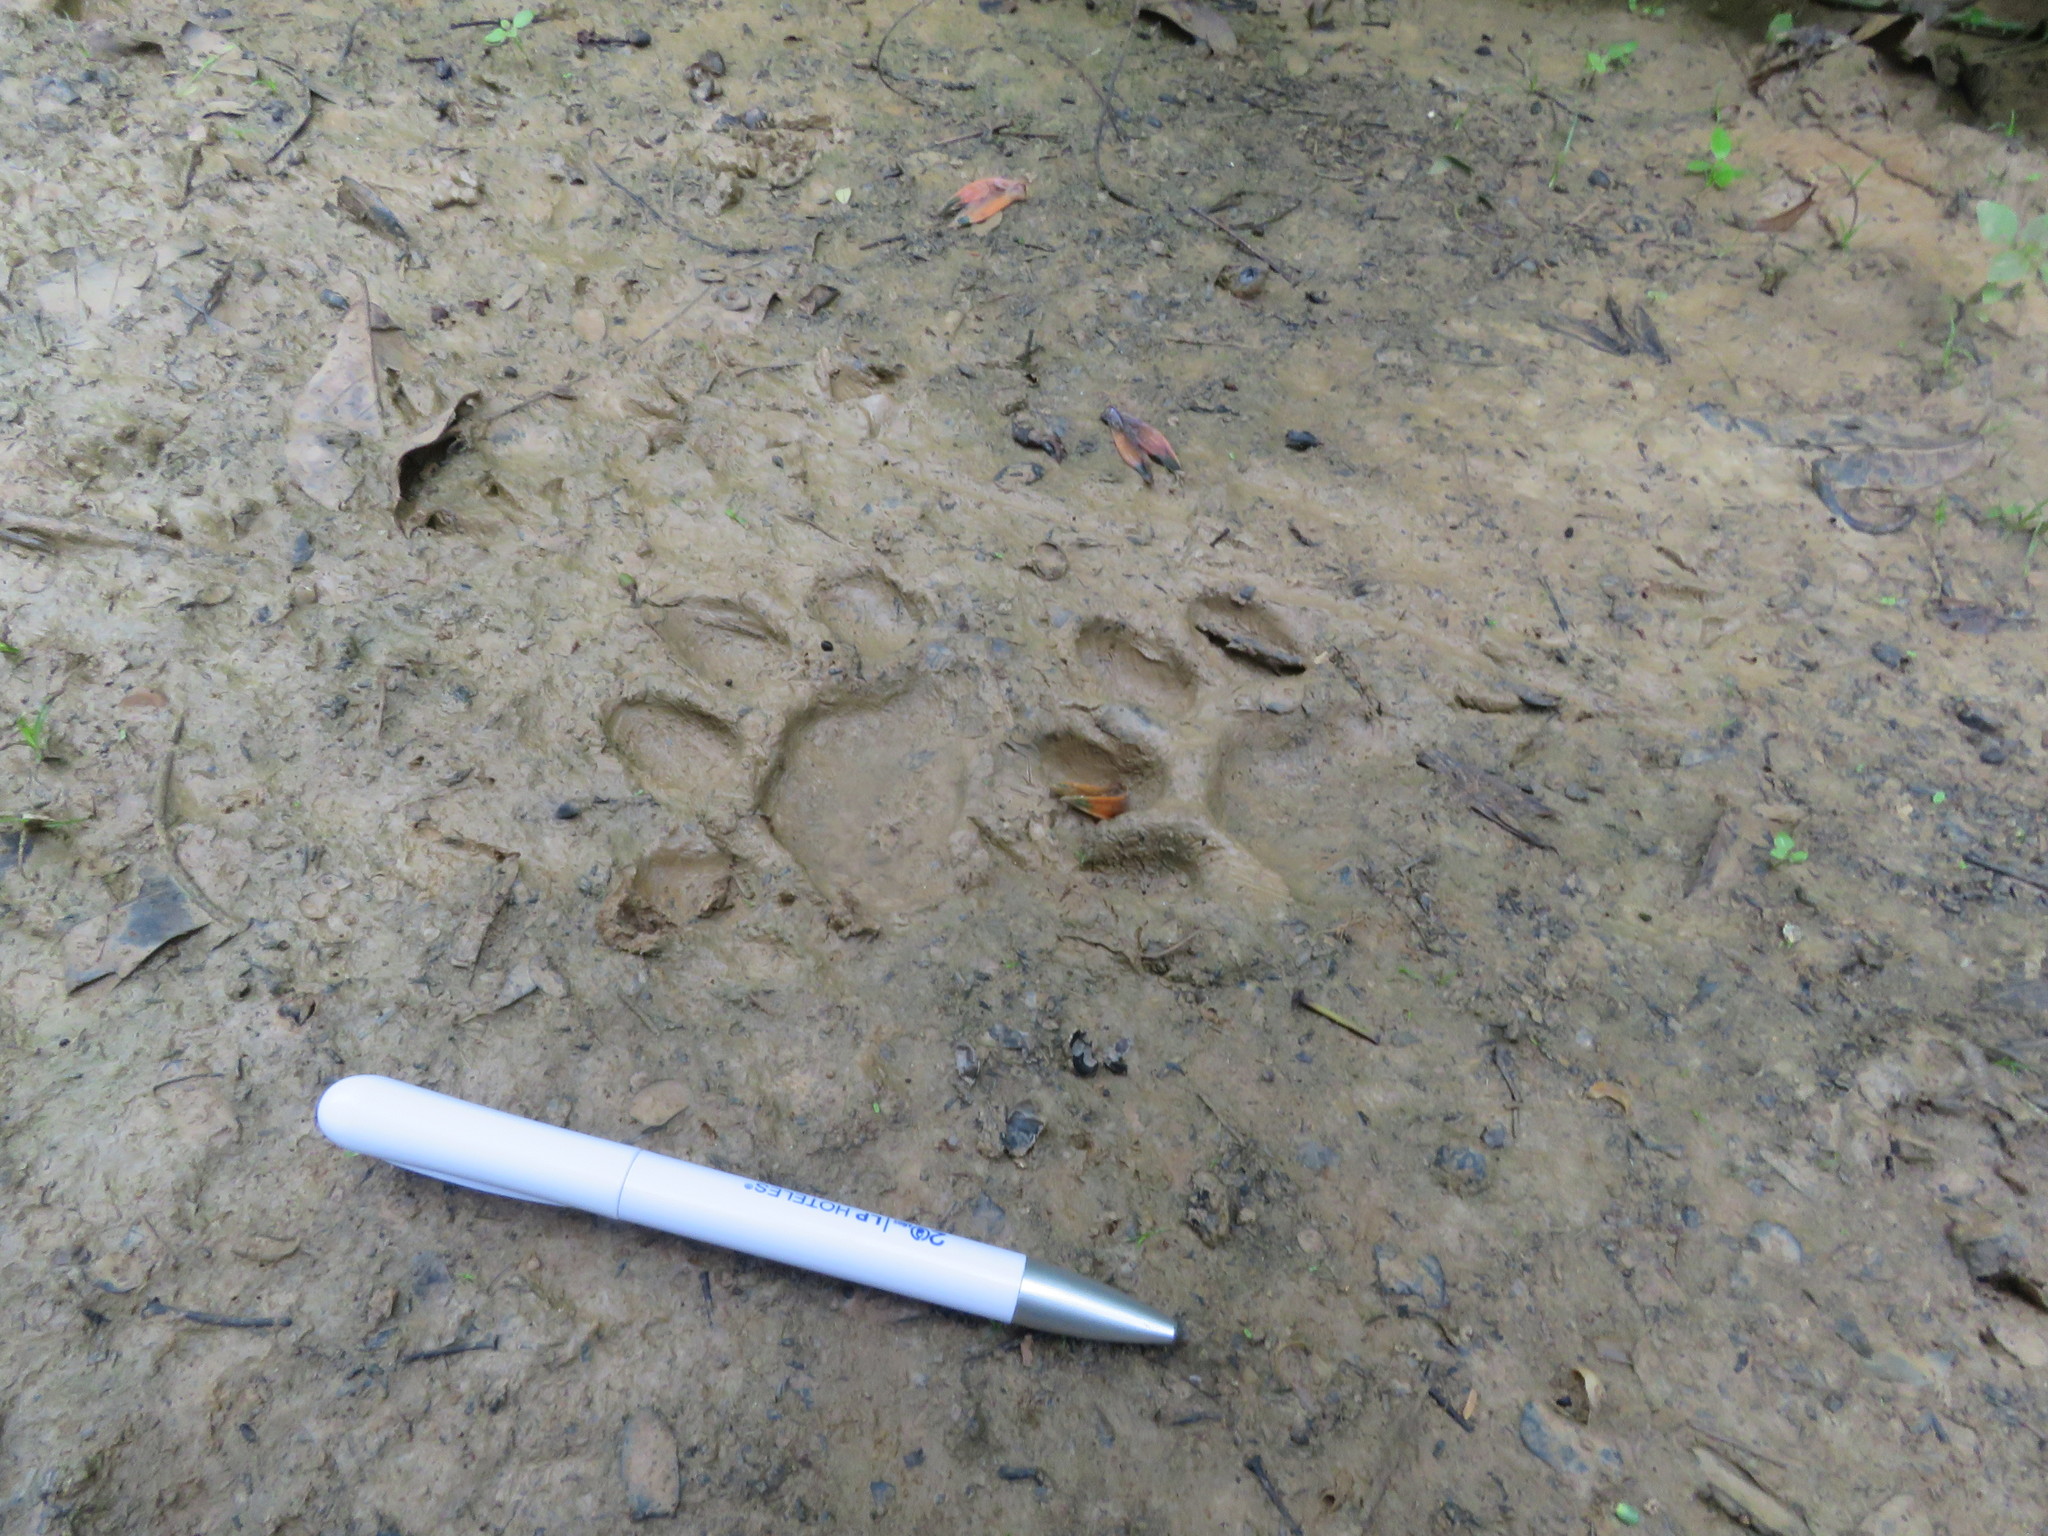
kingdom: Animalia
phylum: Chordata
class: Mammalia
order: Carnivora
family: Felidae
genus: Leopardus
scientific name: Leopardus pardalis
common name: Ocelot
